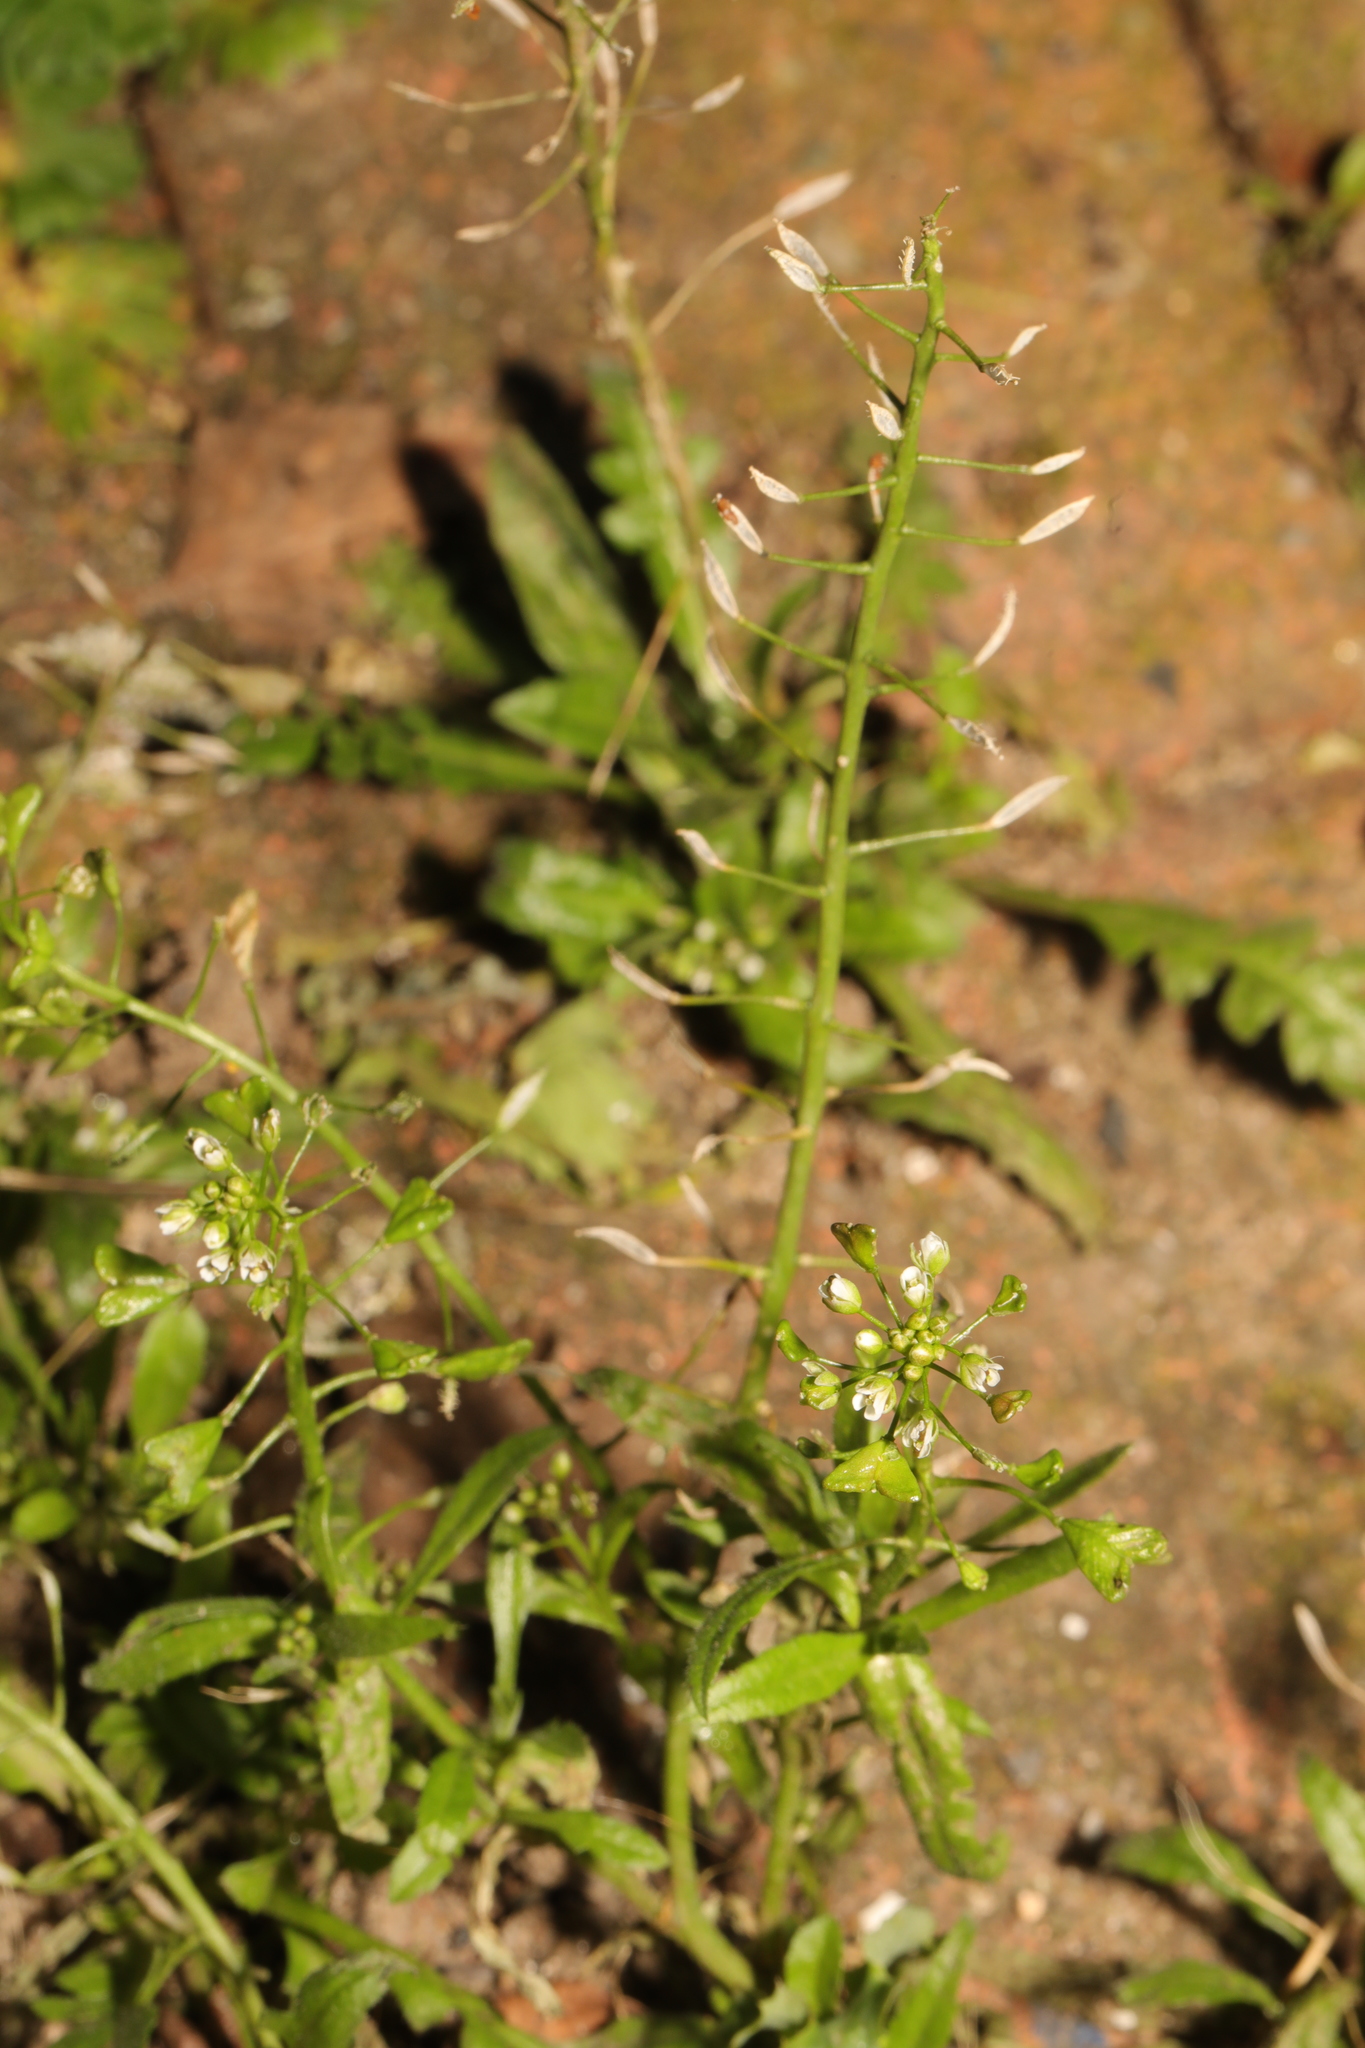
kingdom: Plantae
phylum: Tracheophyta
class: Magnoliopsida
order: Brassicales
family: Brassicaceae
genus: Capsella
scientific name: Capsella bursa-pastoris
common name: Shepherd's purse
